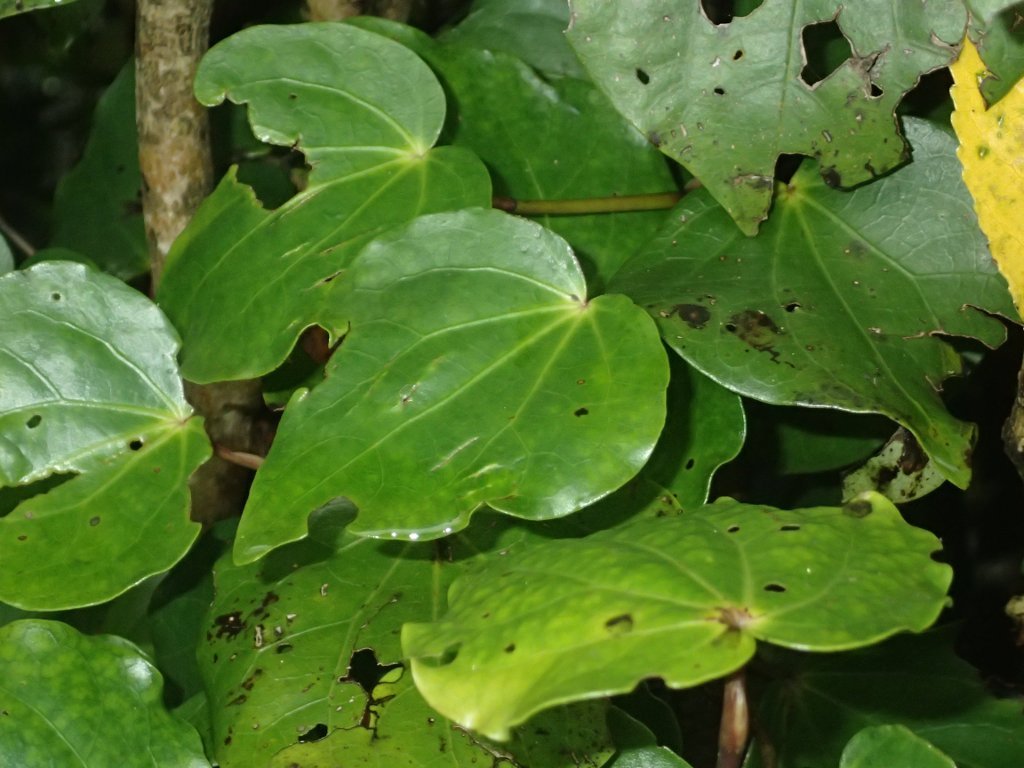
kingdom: Plantae
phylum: Tracheophyta
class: Magnoliopsida
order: Piperales
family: Piperaceae
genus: Macropiper
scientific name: Macropiper excelsum
